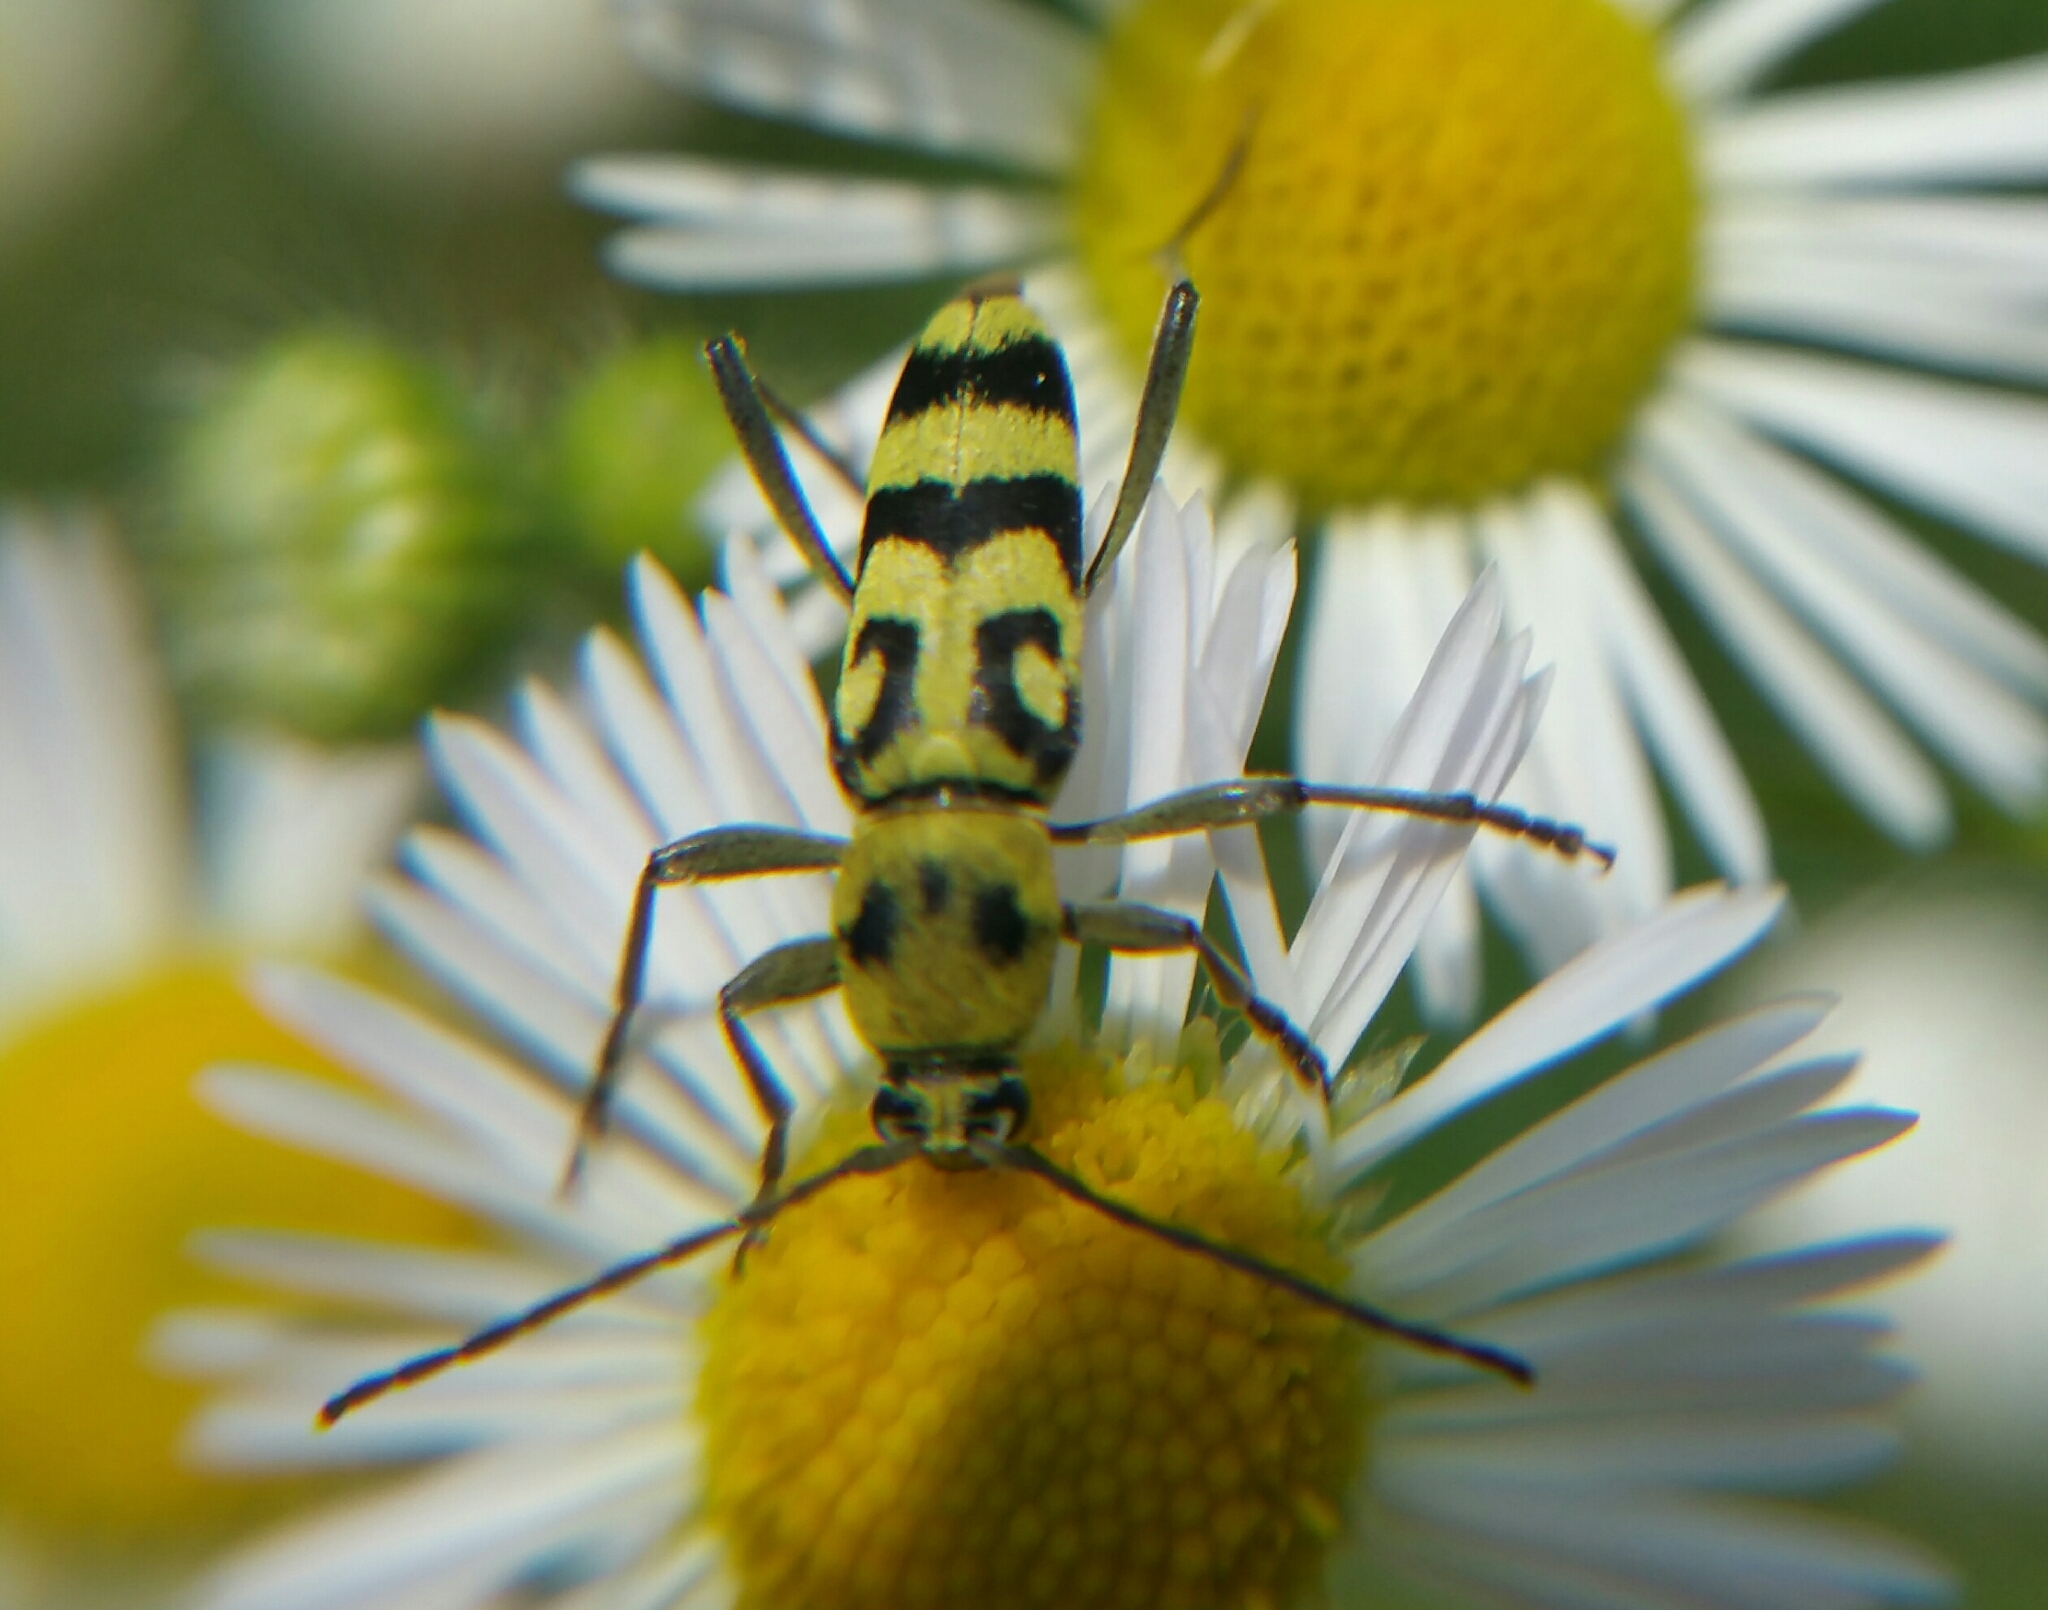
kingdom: Animalia
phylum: Arthropoda
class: Insecta
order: Coleoptera
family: Cerambycidae
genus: Chlorophorus
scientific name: Chlorophorus varius
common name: Grape wood borer
